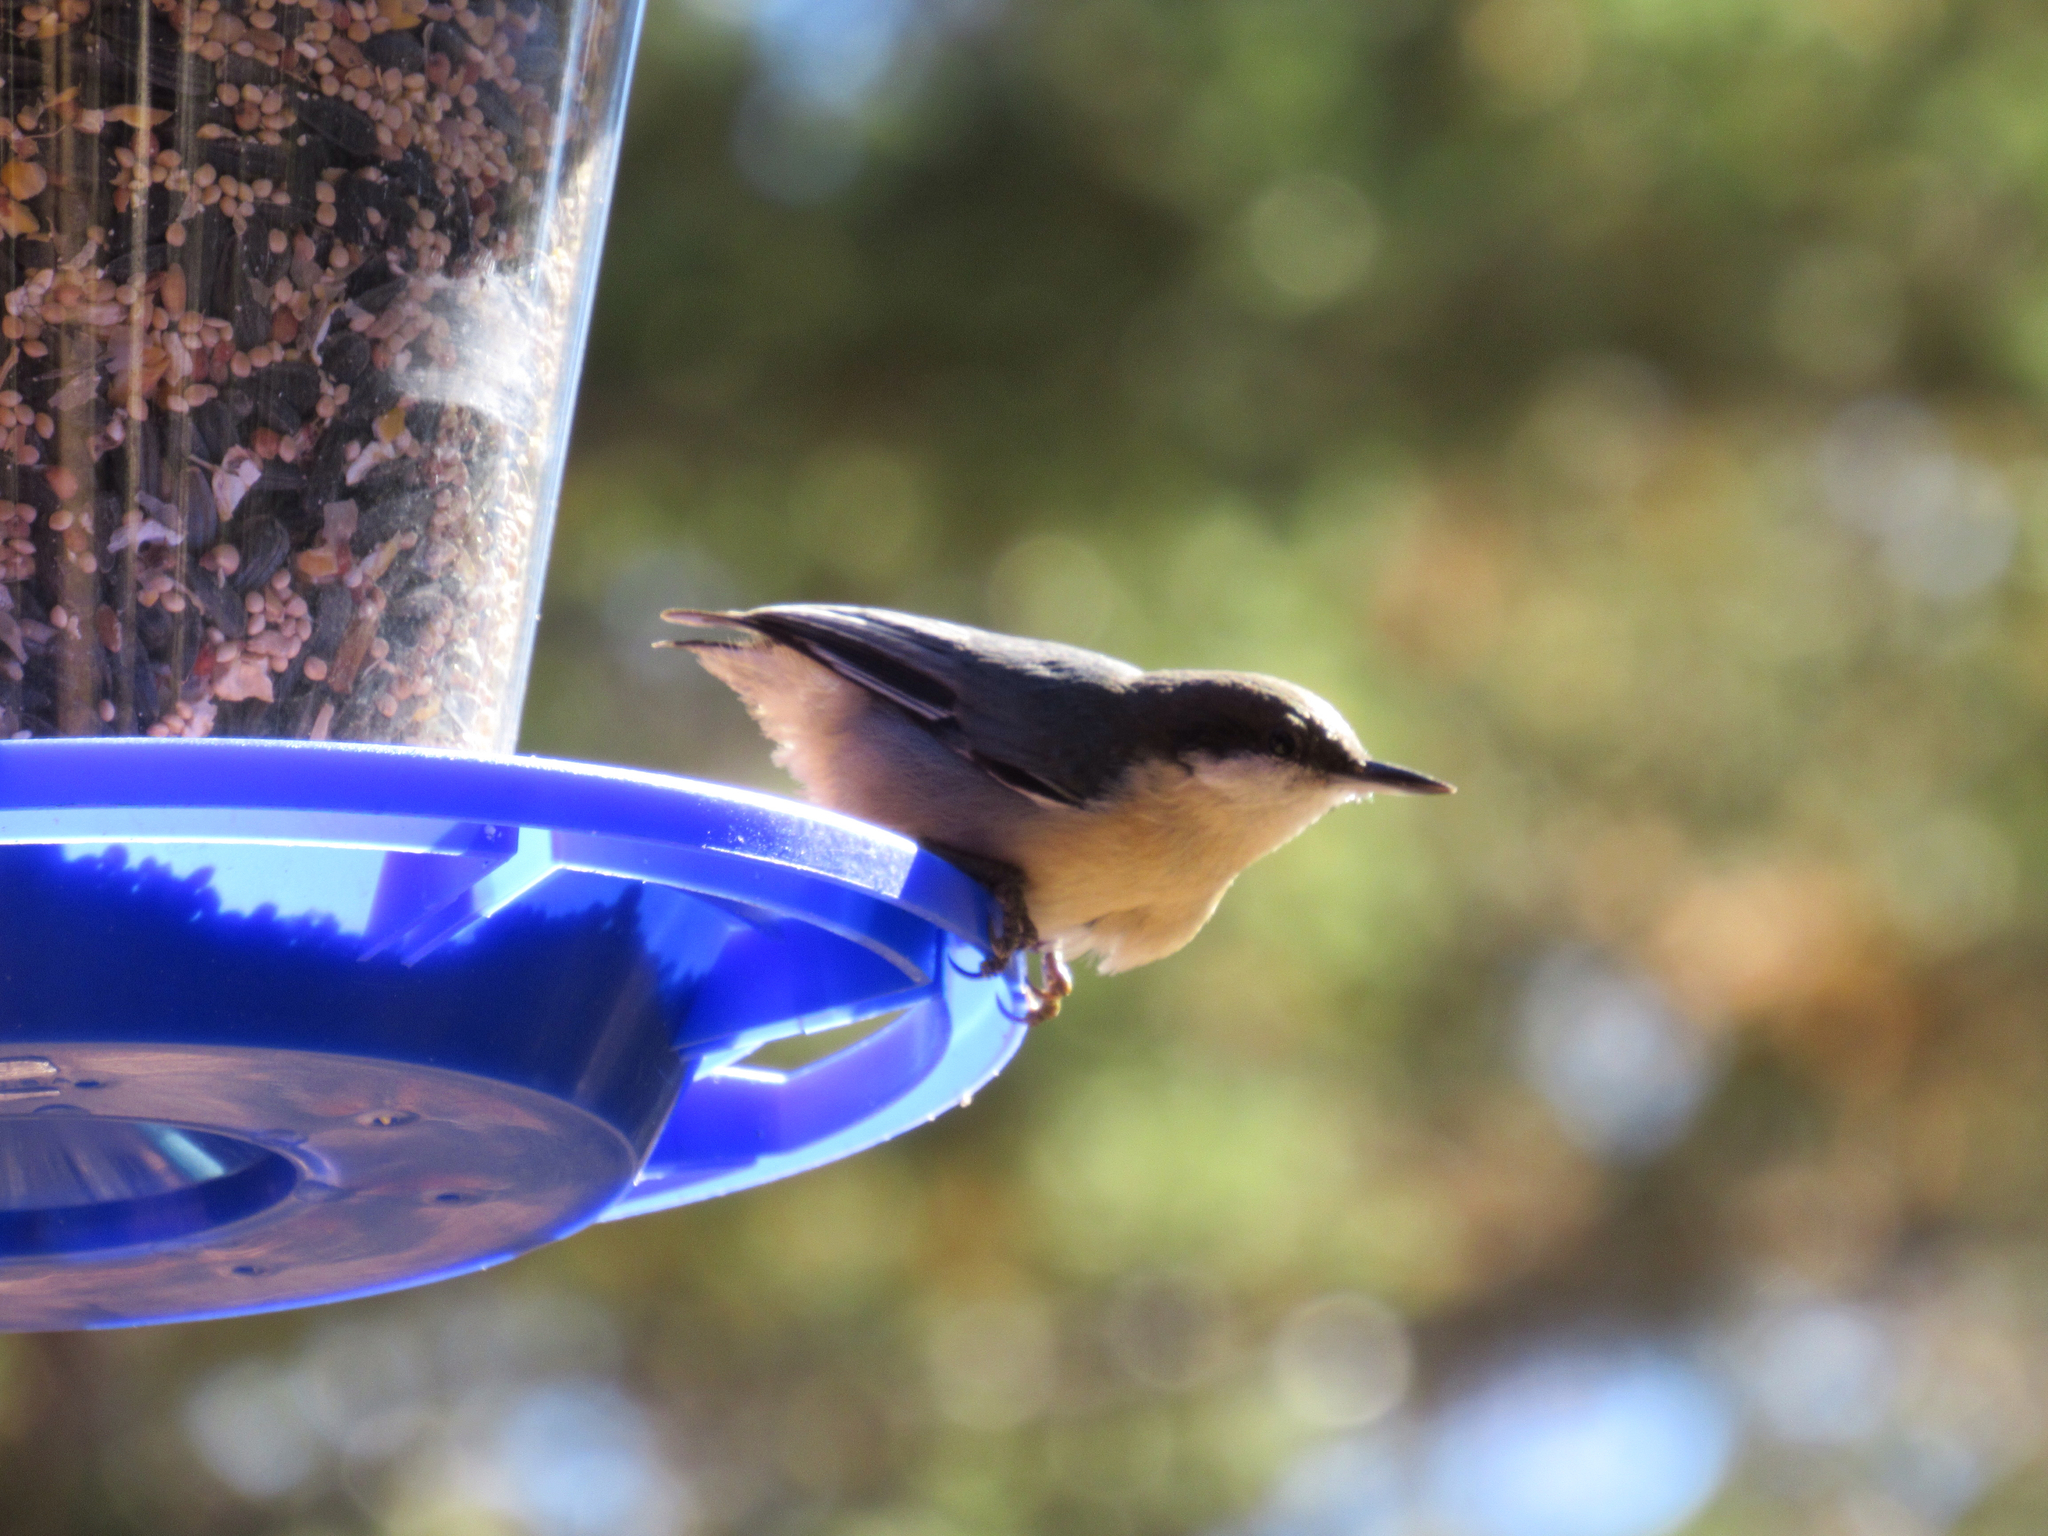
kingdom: Animalia
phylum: Chordata
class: Aves
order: Passeriformes
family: Sittidae
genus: Sitta
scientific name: Sitta pygmaea
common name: Pygmy nuthatch
